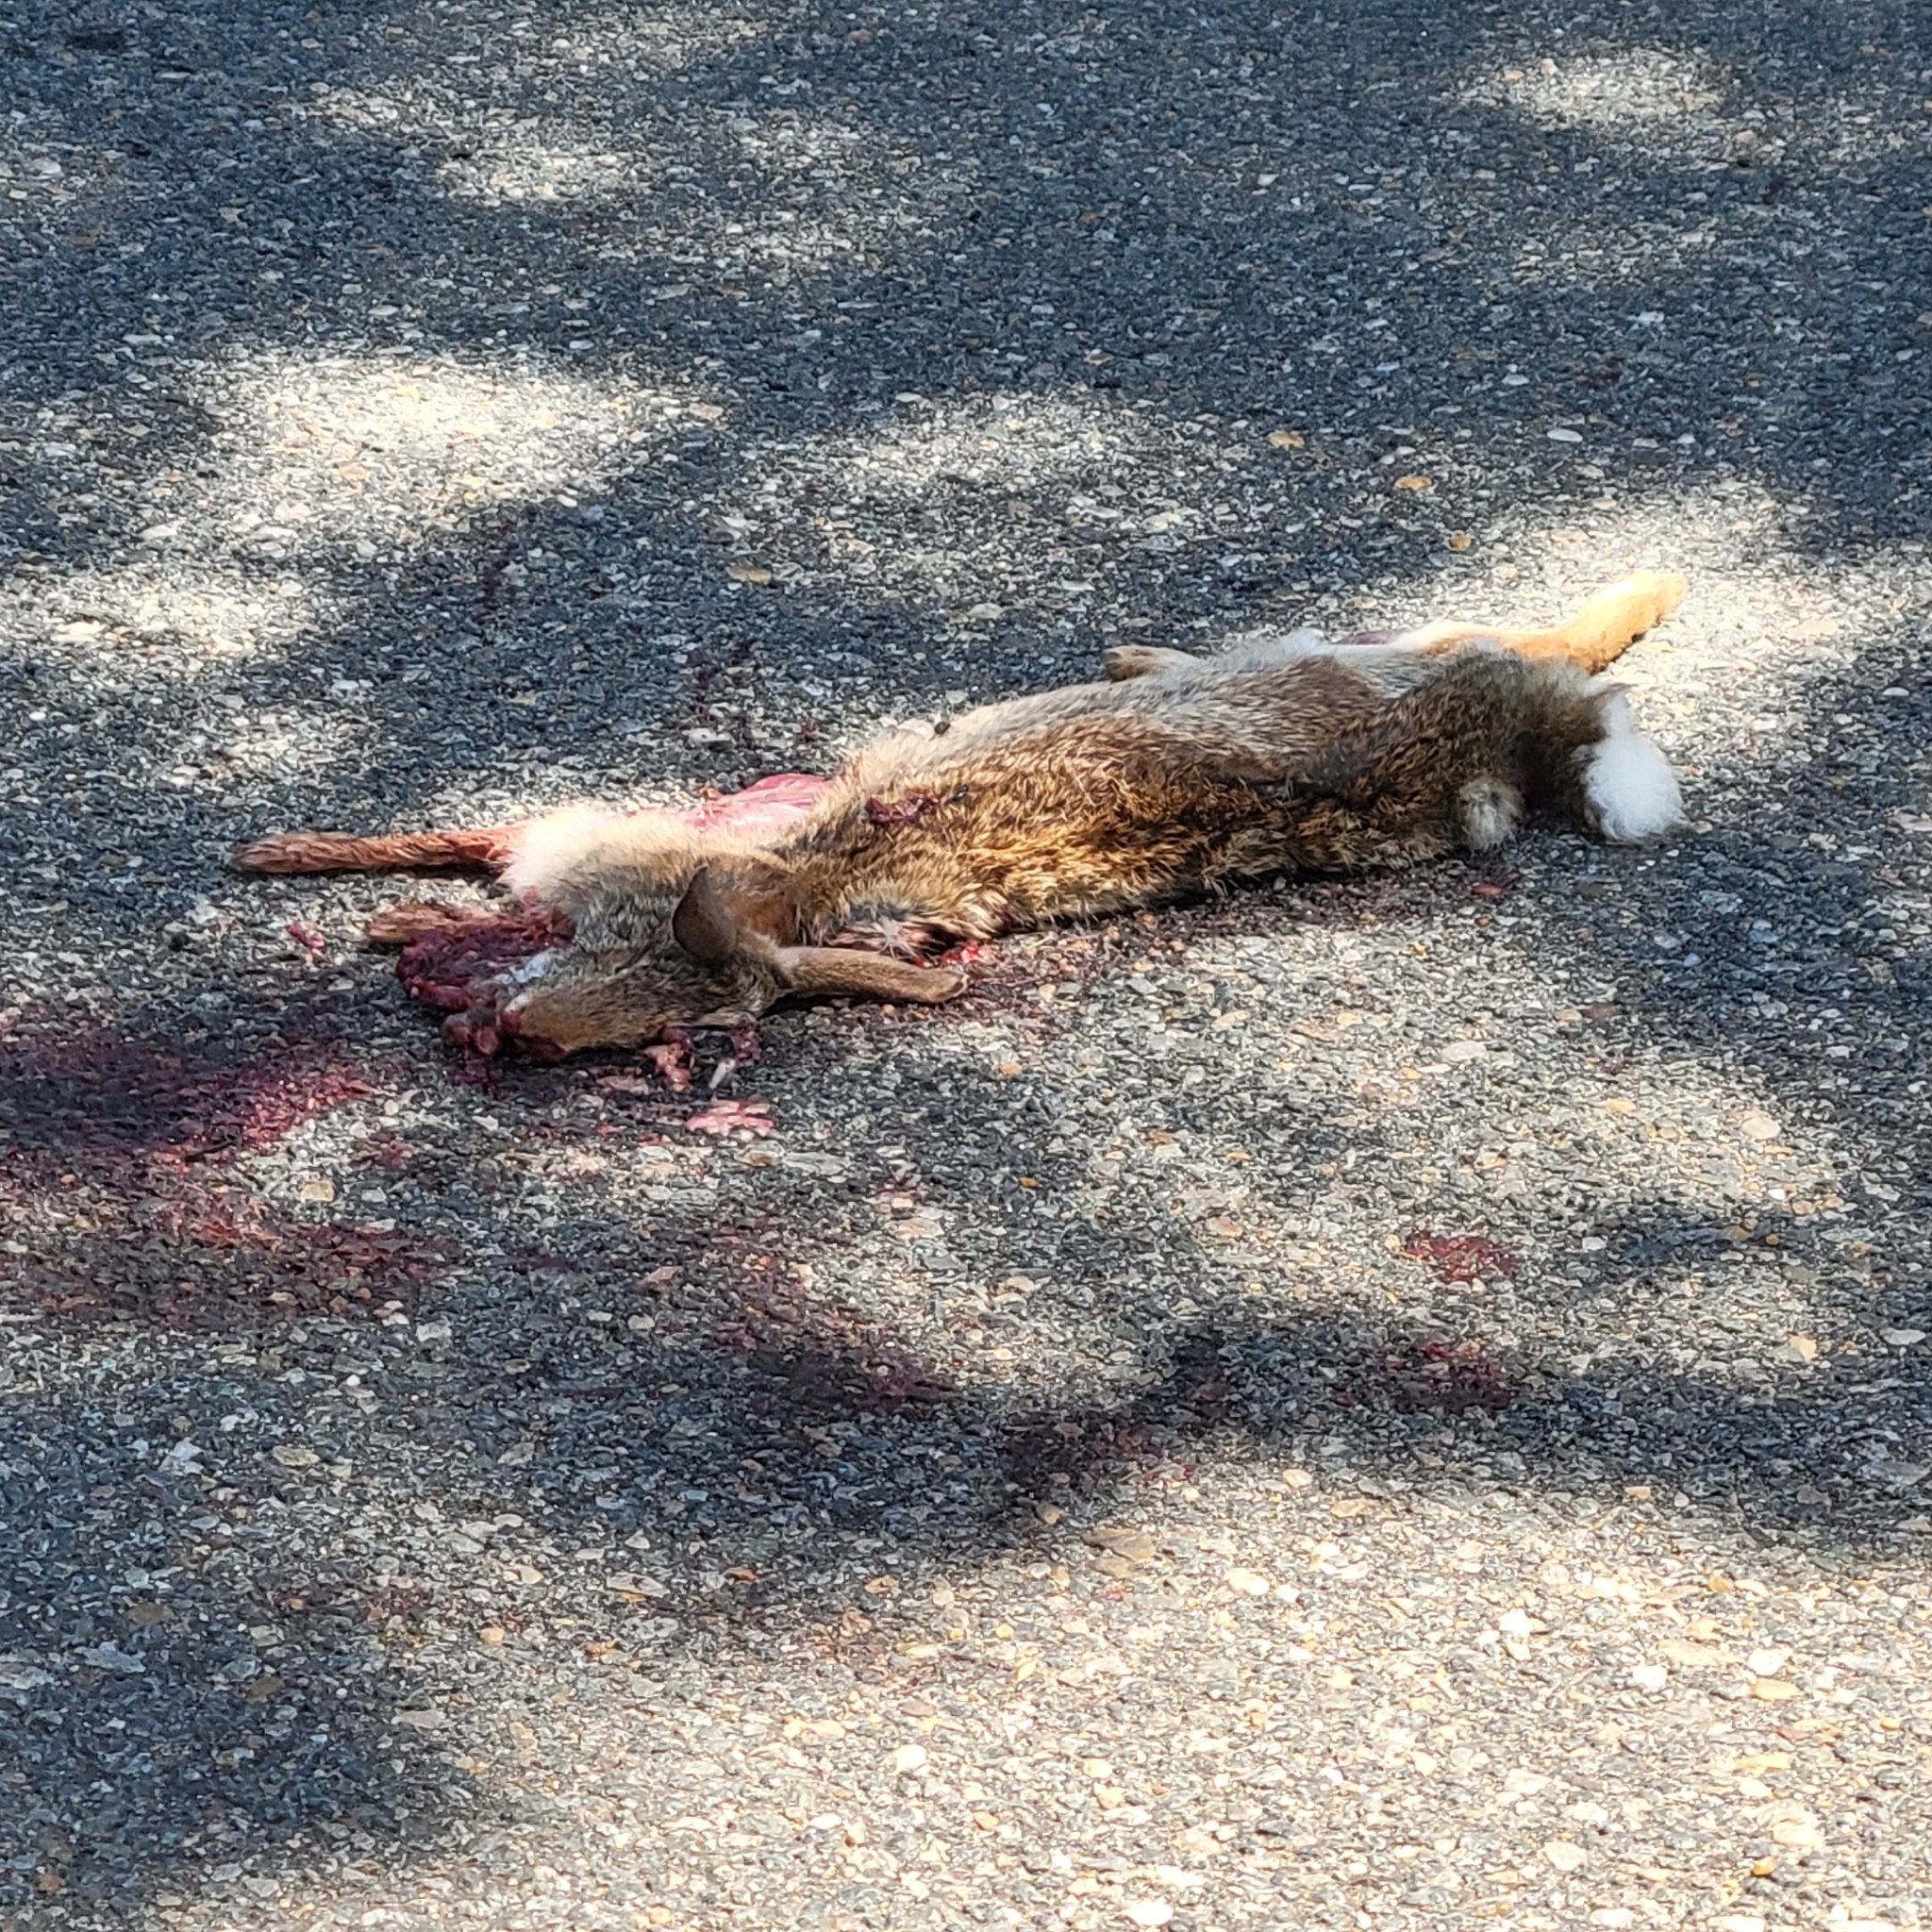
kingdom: Animalia
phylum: Chordata
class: Mammalia
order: Lagomorpha
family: Leporidae
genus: Sylvilagus
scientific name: Sylvilagus floridanus
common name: Eastern cottontail
